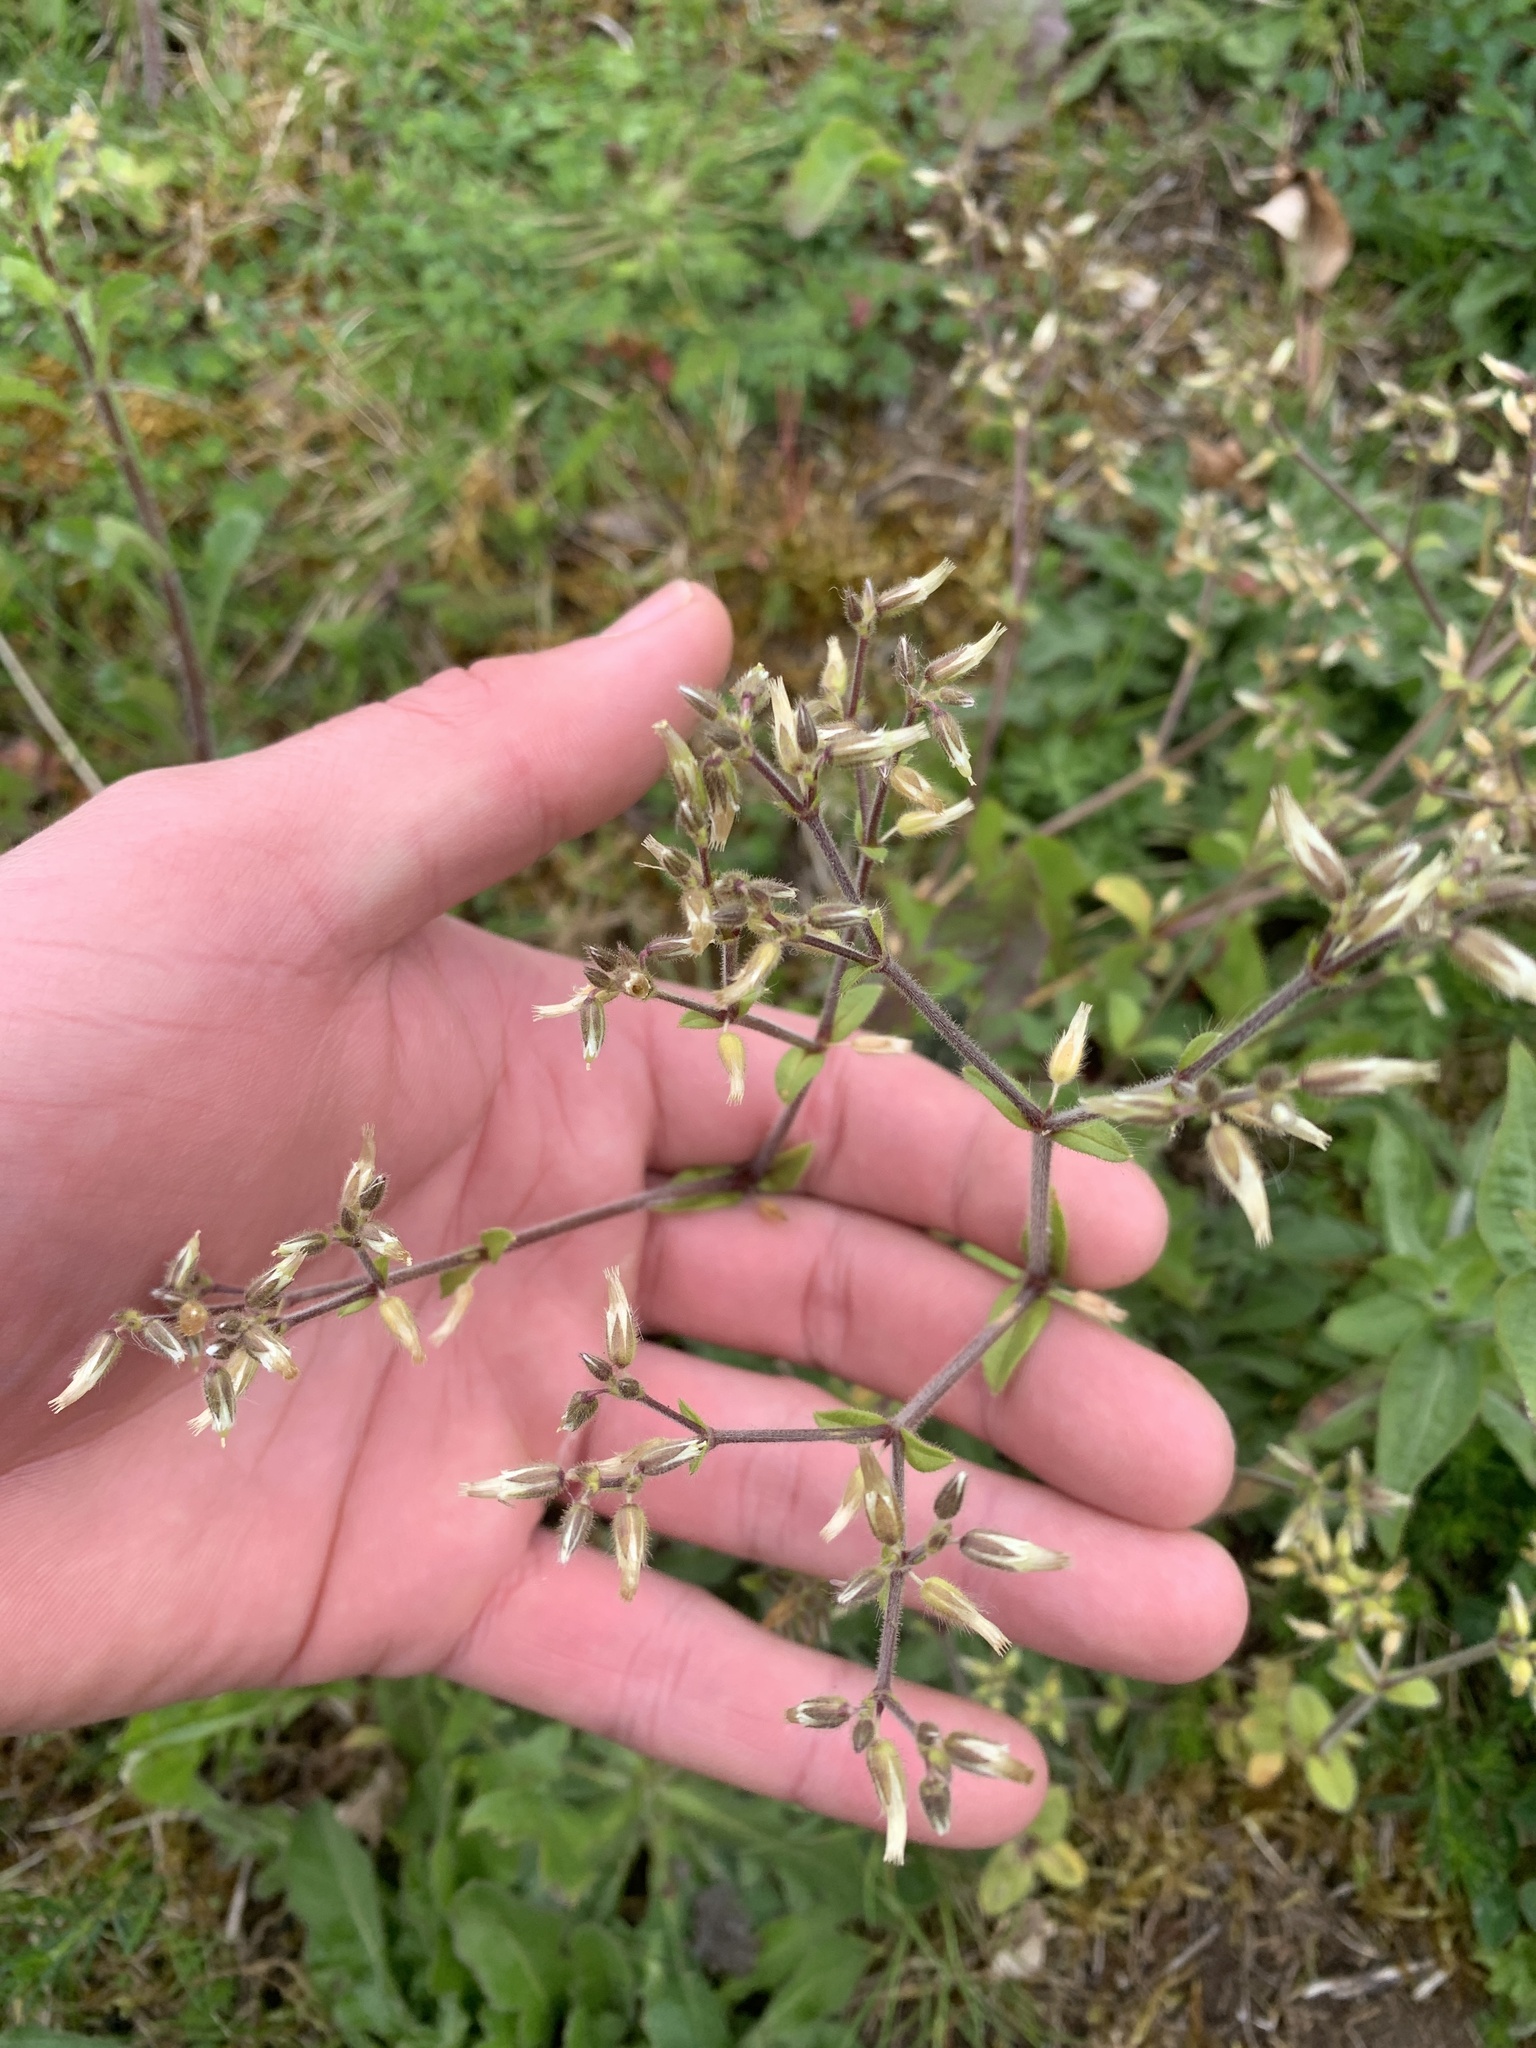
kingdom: Plantae
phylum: Tracheophyta
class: Magnoliopsida
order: Caryophyllales
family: Caryophyllaceae
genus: Cerastium
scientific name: Cerastium glomeratum
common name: Sticky chickweed
